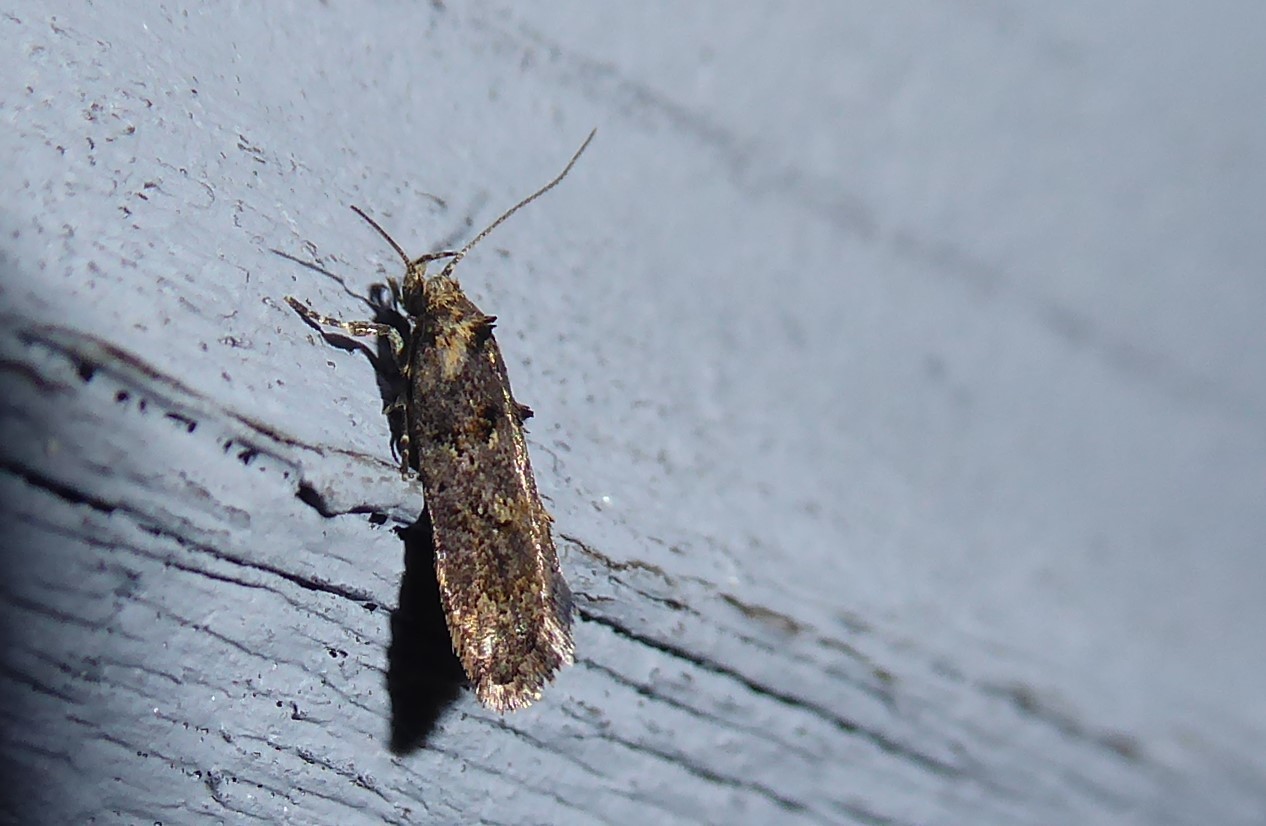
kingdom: Animalia
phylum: Arthropoda
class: Insecta
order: Lepidoptera
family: Oecophoridae
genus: Trachypepla
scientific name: Trachypepla anastrella
